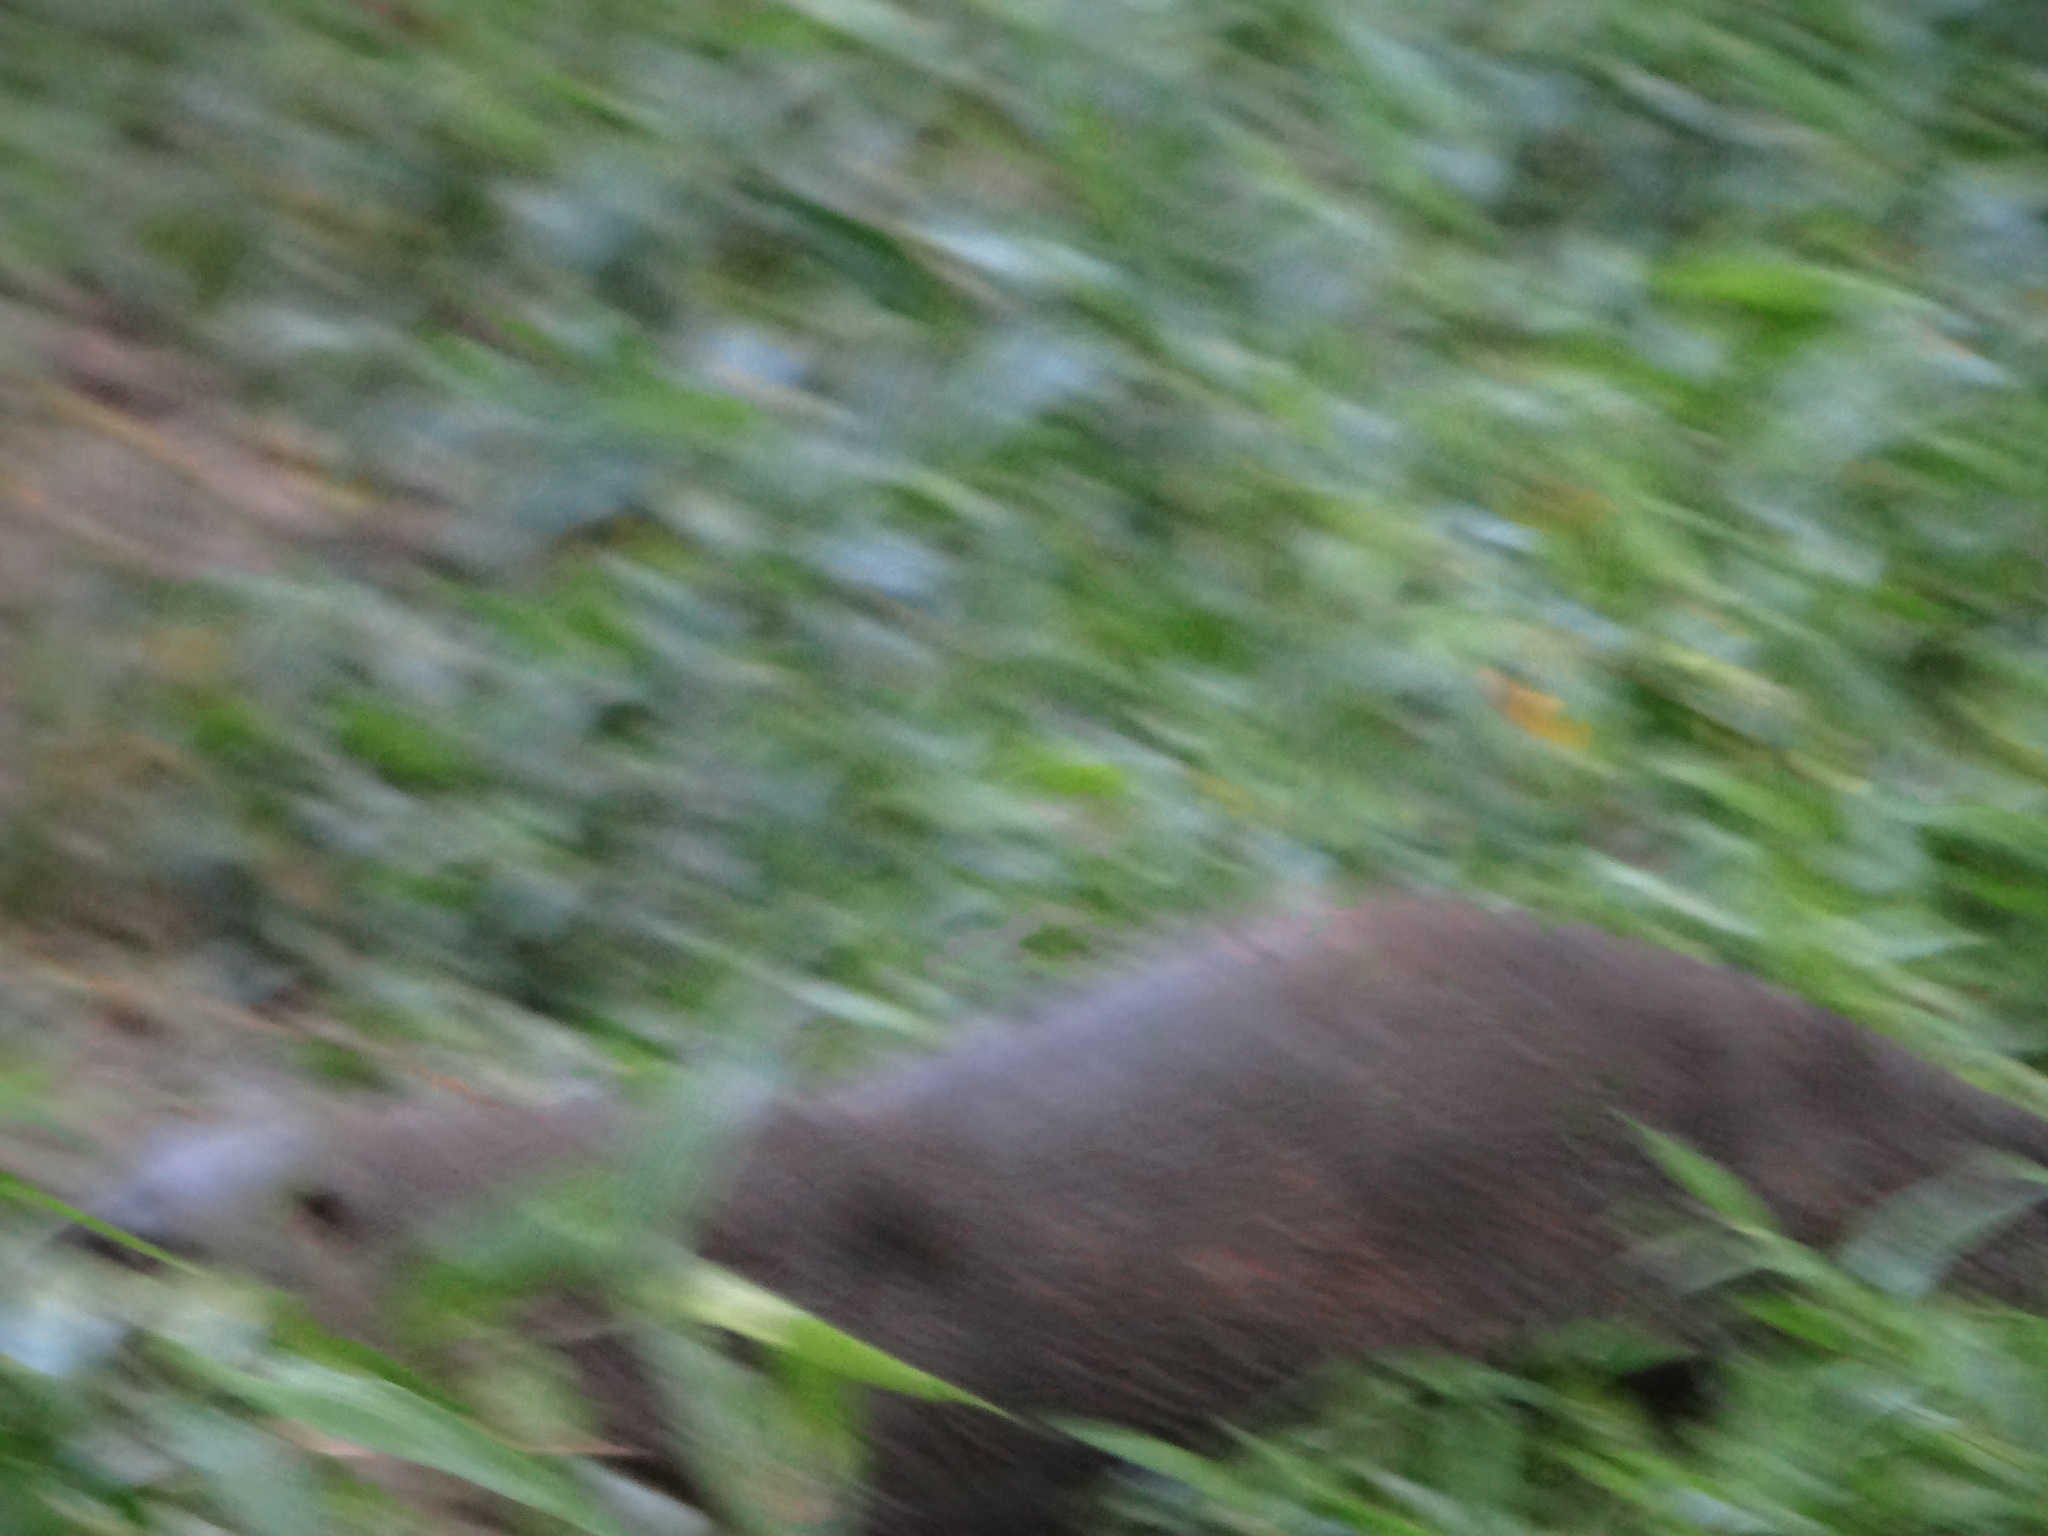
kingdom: Animalia
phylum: Chordata
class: Mammalia
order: Carnivora
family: Mustelidae
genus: Lontra
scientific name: Lontra longicaudis
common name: Neotropical otter
